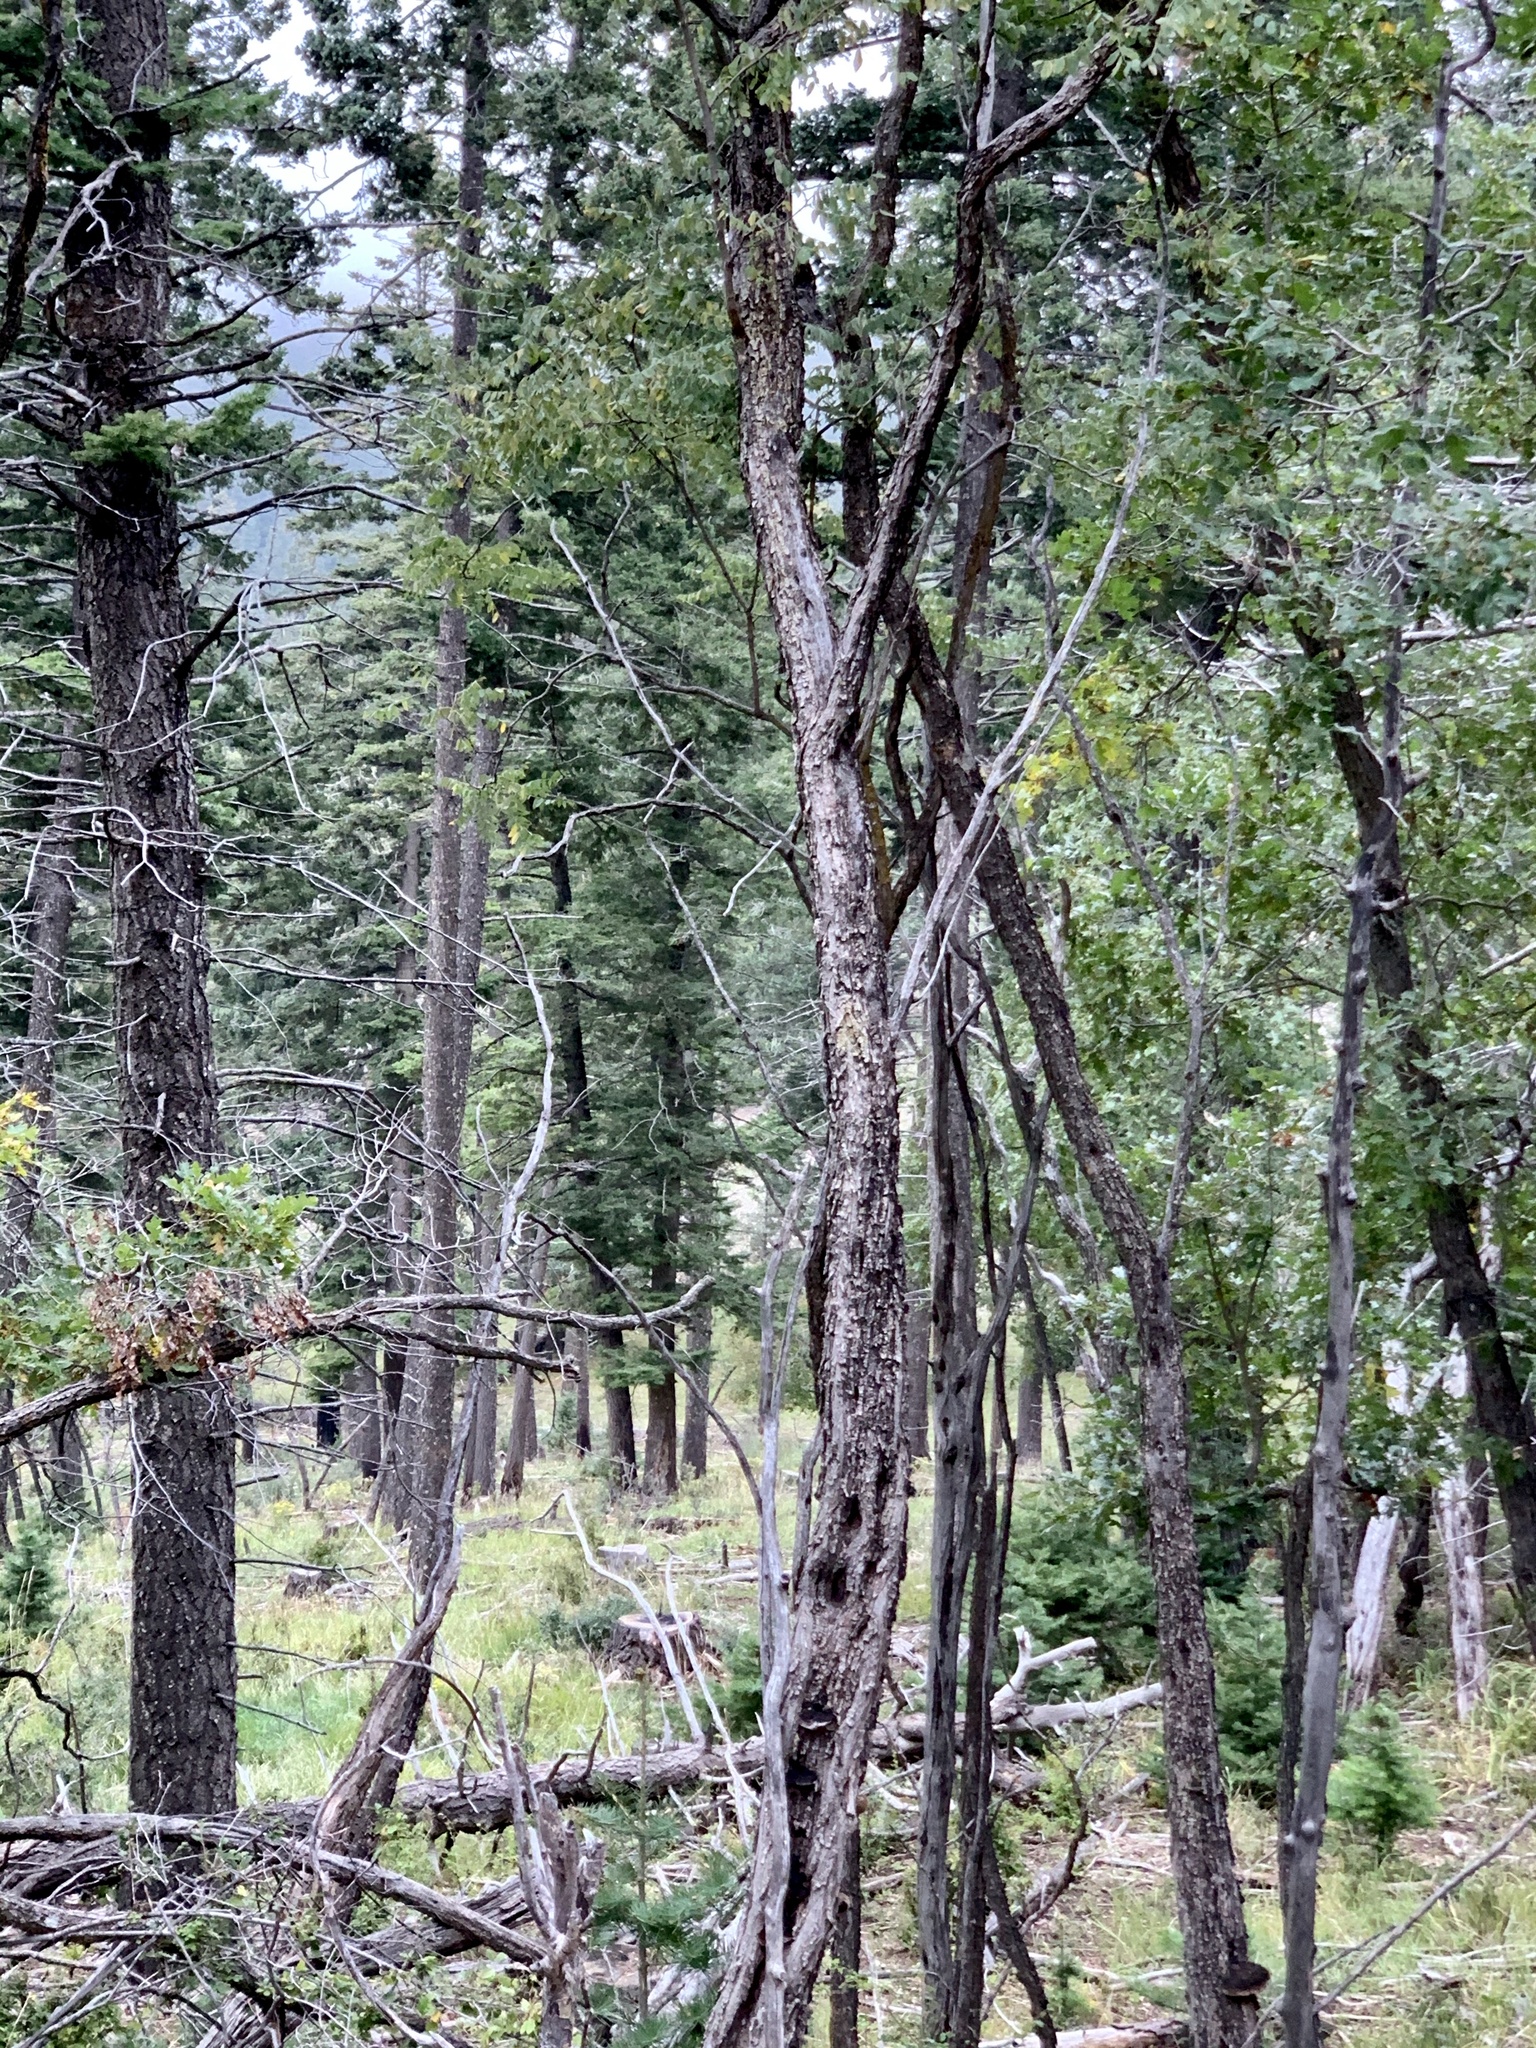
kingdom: Plantae
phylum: Tracheophyta
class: Magnoliopsida
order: Fabales
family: Fabaceae
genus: Robinia
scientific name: Robinia neomexicana
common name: New mexico locust
